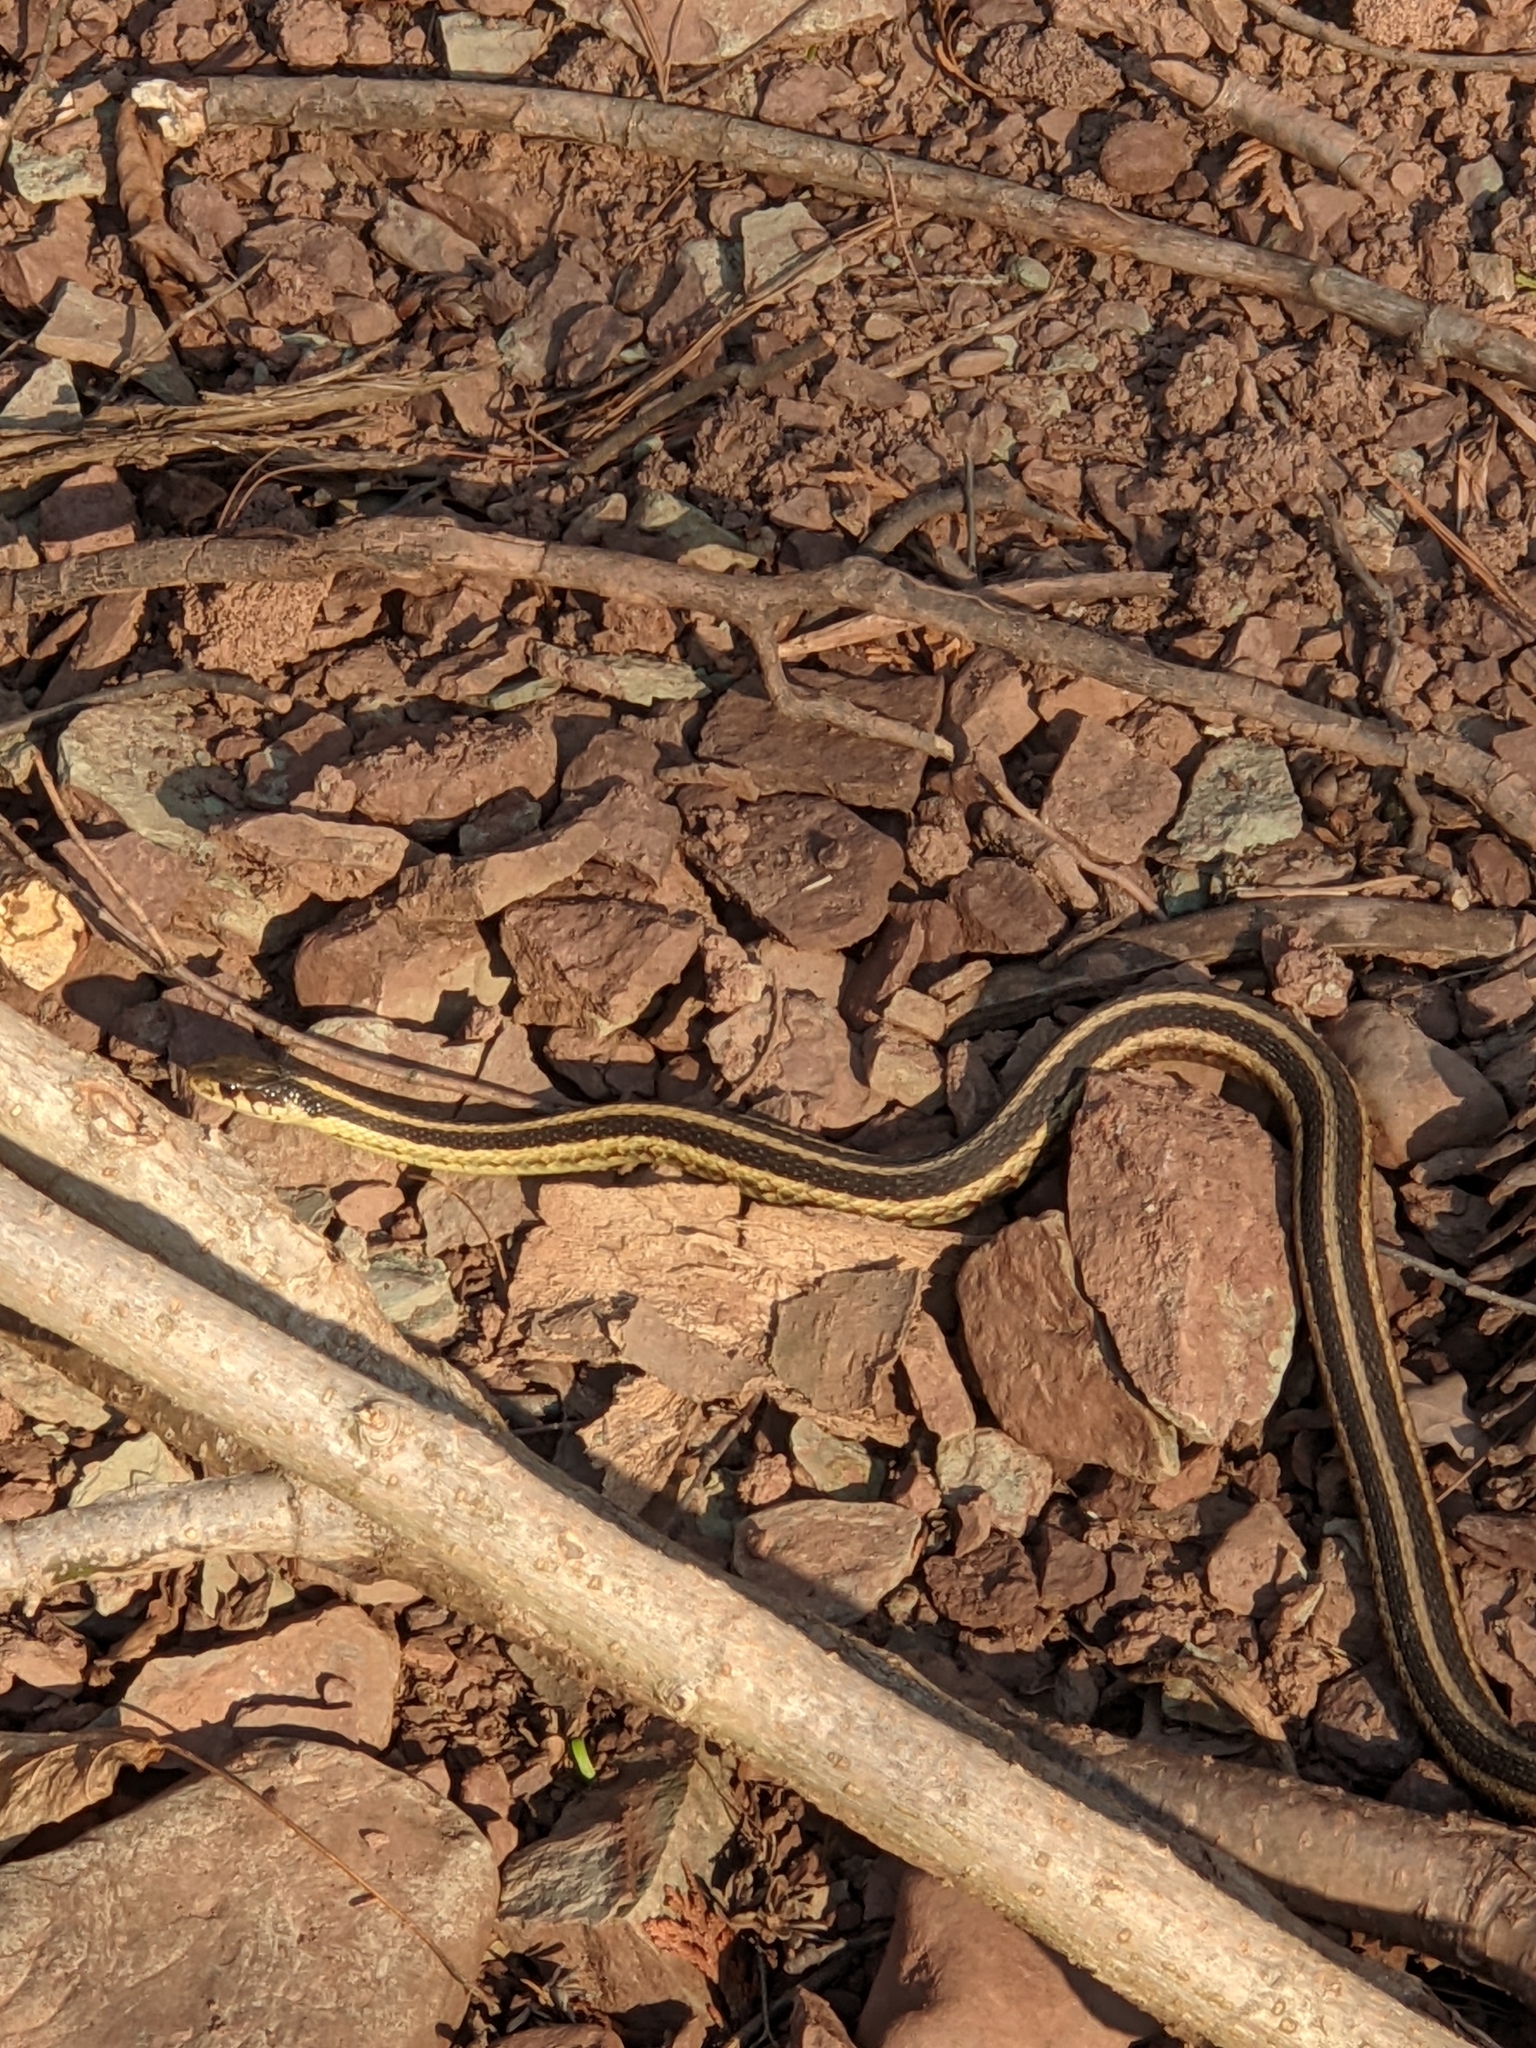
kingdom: Animalia
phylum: Chordata
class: Squamata
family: Colubridae
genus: Thamnophis
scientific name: Thamnophis sirtalis
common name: Common garter snake
